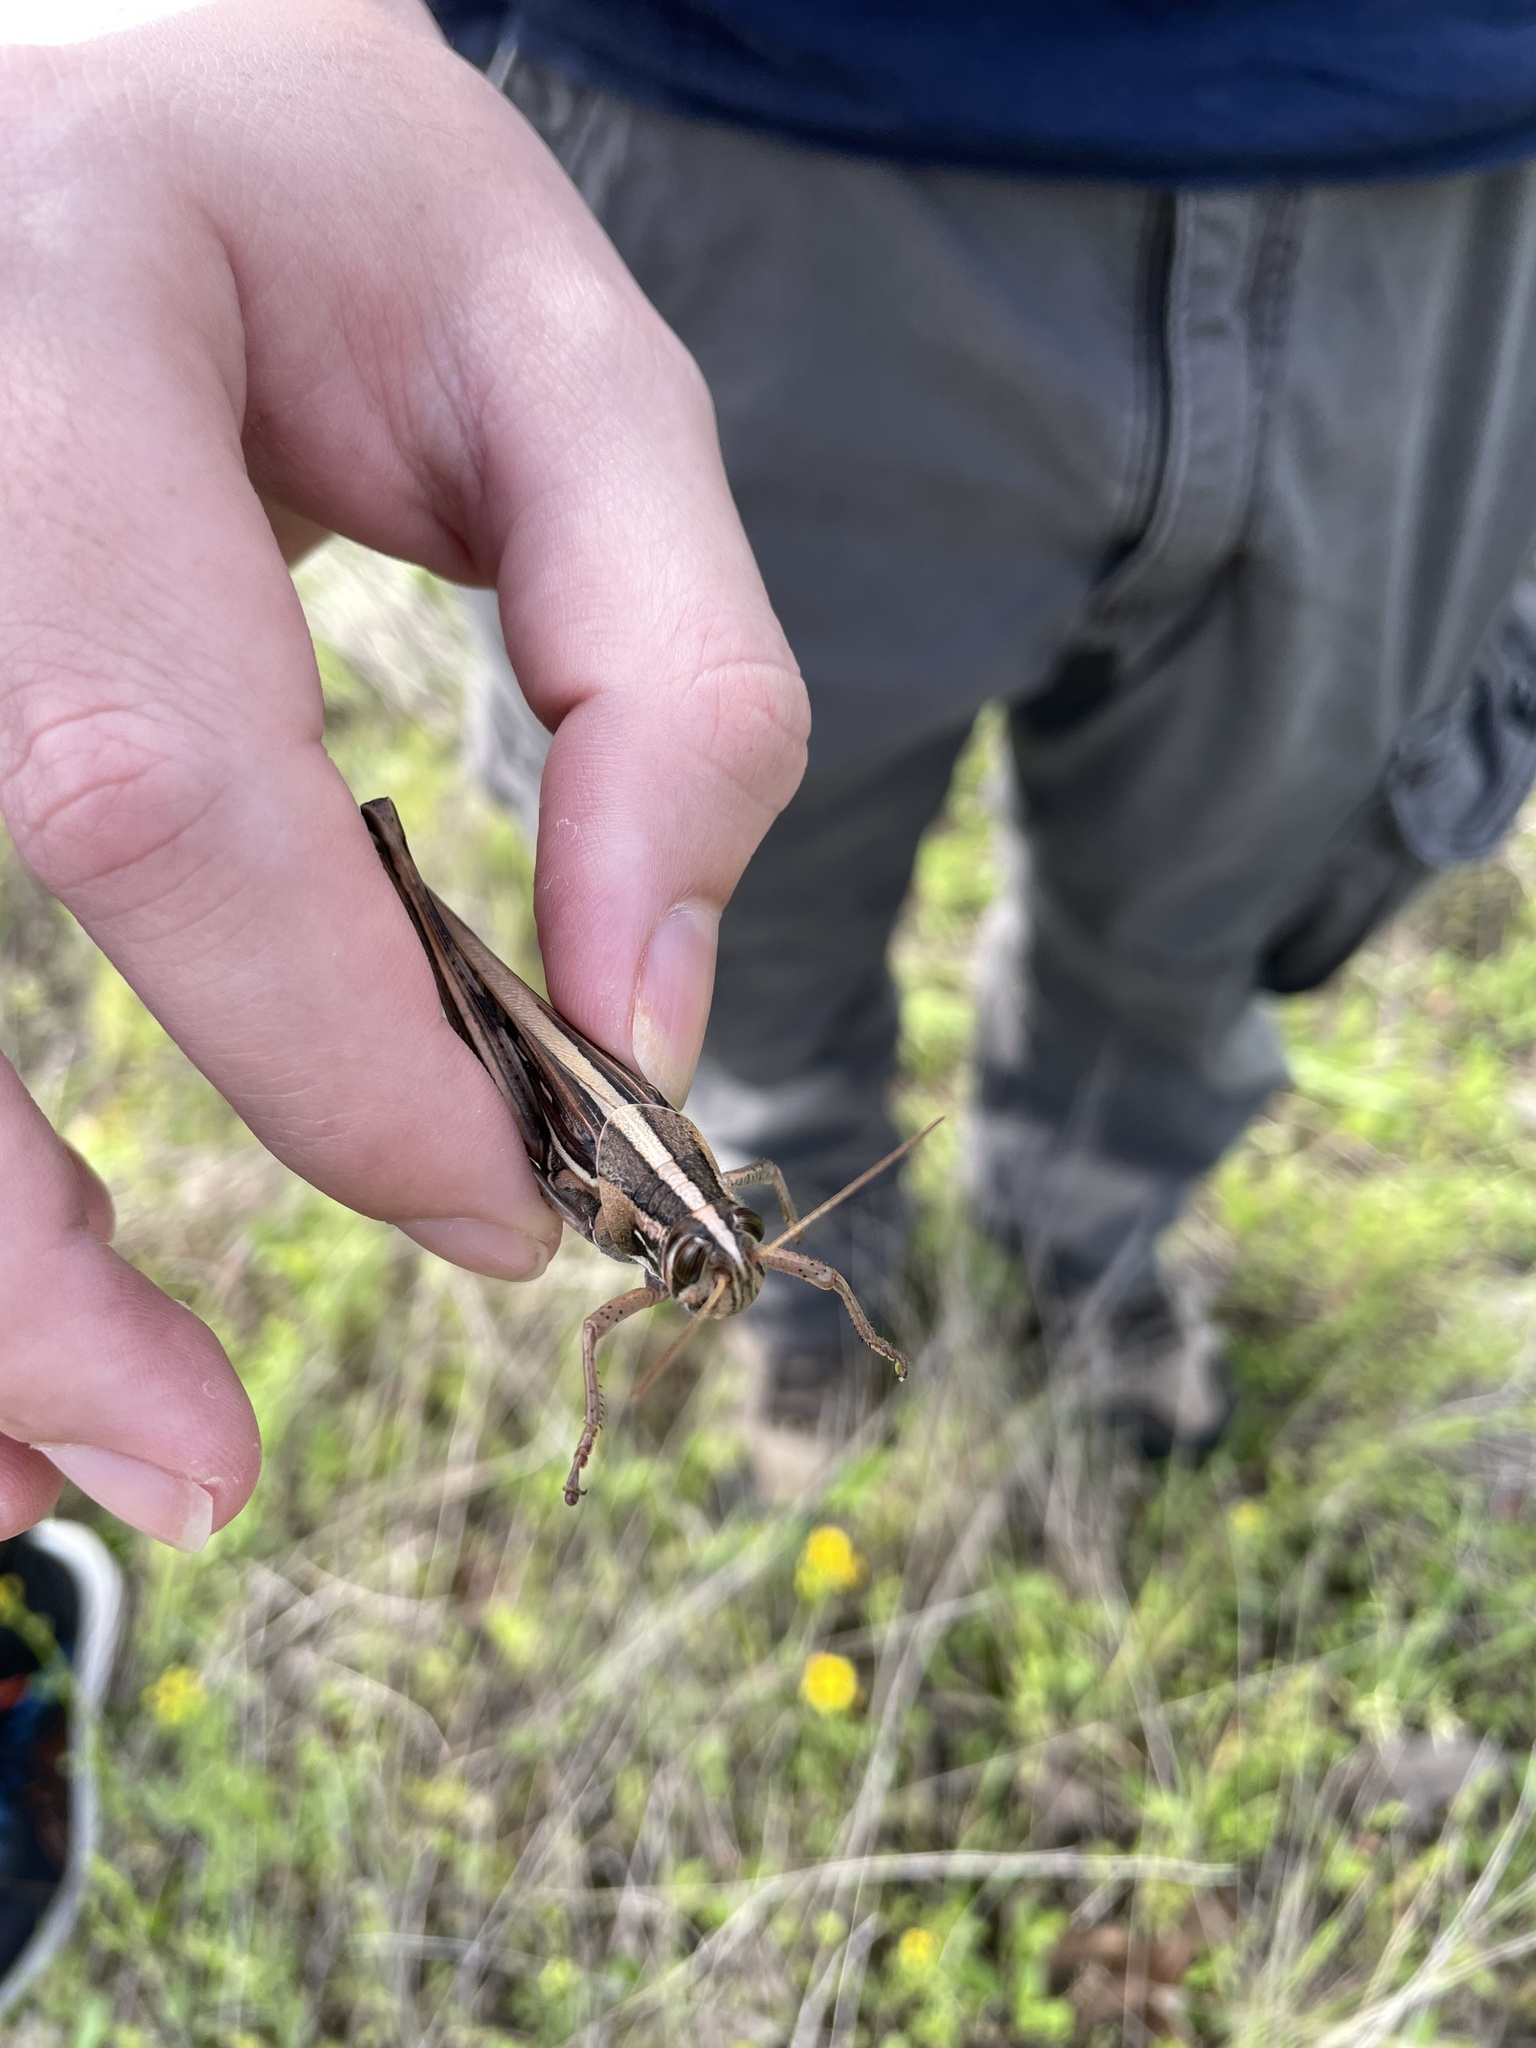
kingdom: Animalia
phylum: Arthropoda
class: Insecta
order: Orthoptera
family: Acrididae
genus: Schistocerca
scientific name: Schistocerca americana
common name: American bird locust
